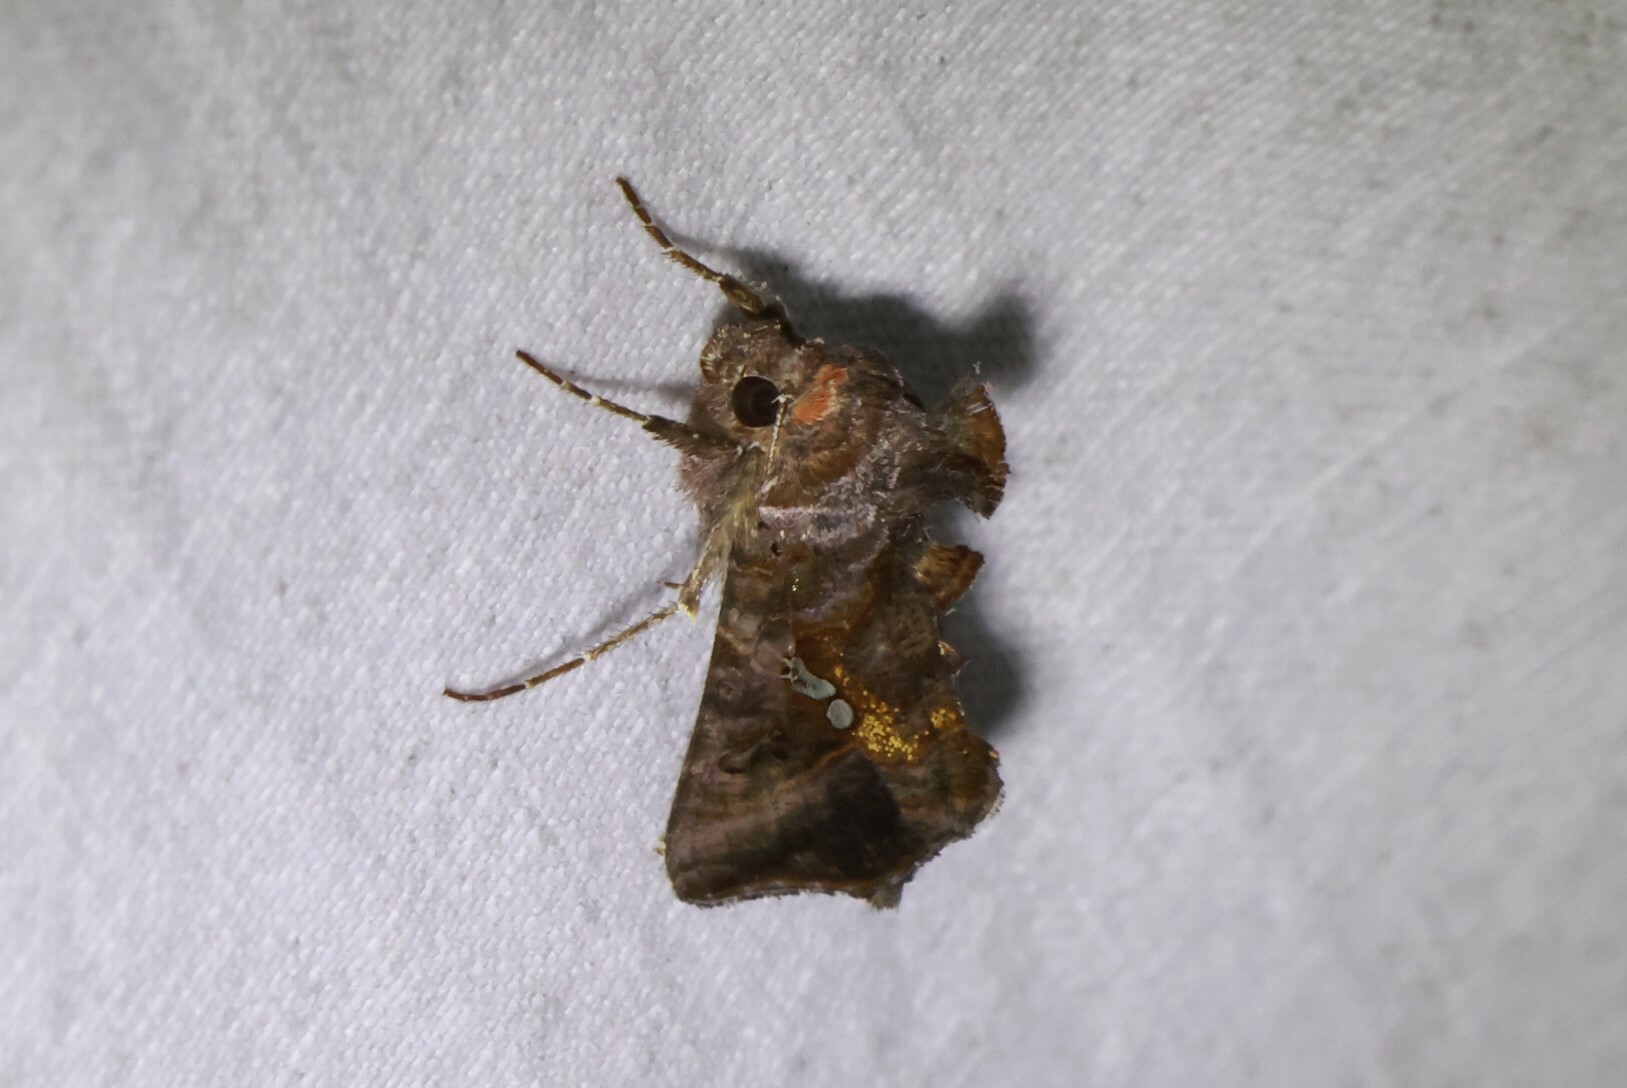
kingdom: Animalia
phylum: Arthropoda
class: Insecta
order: Lepidoptera
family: Noctuidae
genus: Autographa
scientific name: Autographa precationis
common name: Common looper moth
